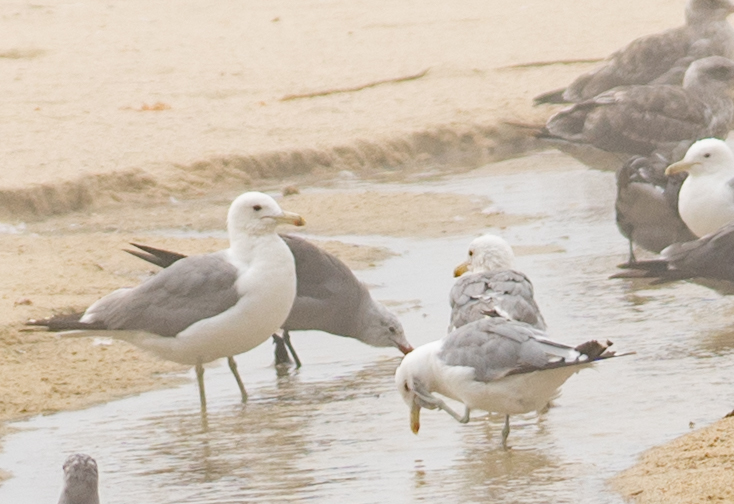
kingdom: Animalia
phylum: Chordata
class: Aves
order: Charadriiformes
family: Laridae
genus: Larus
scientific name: Larus californicus
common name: California gull
